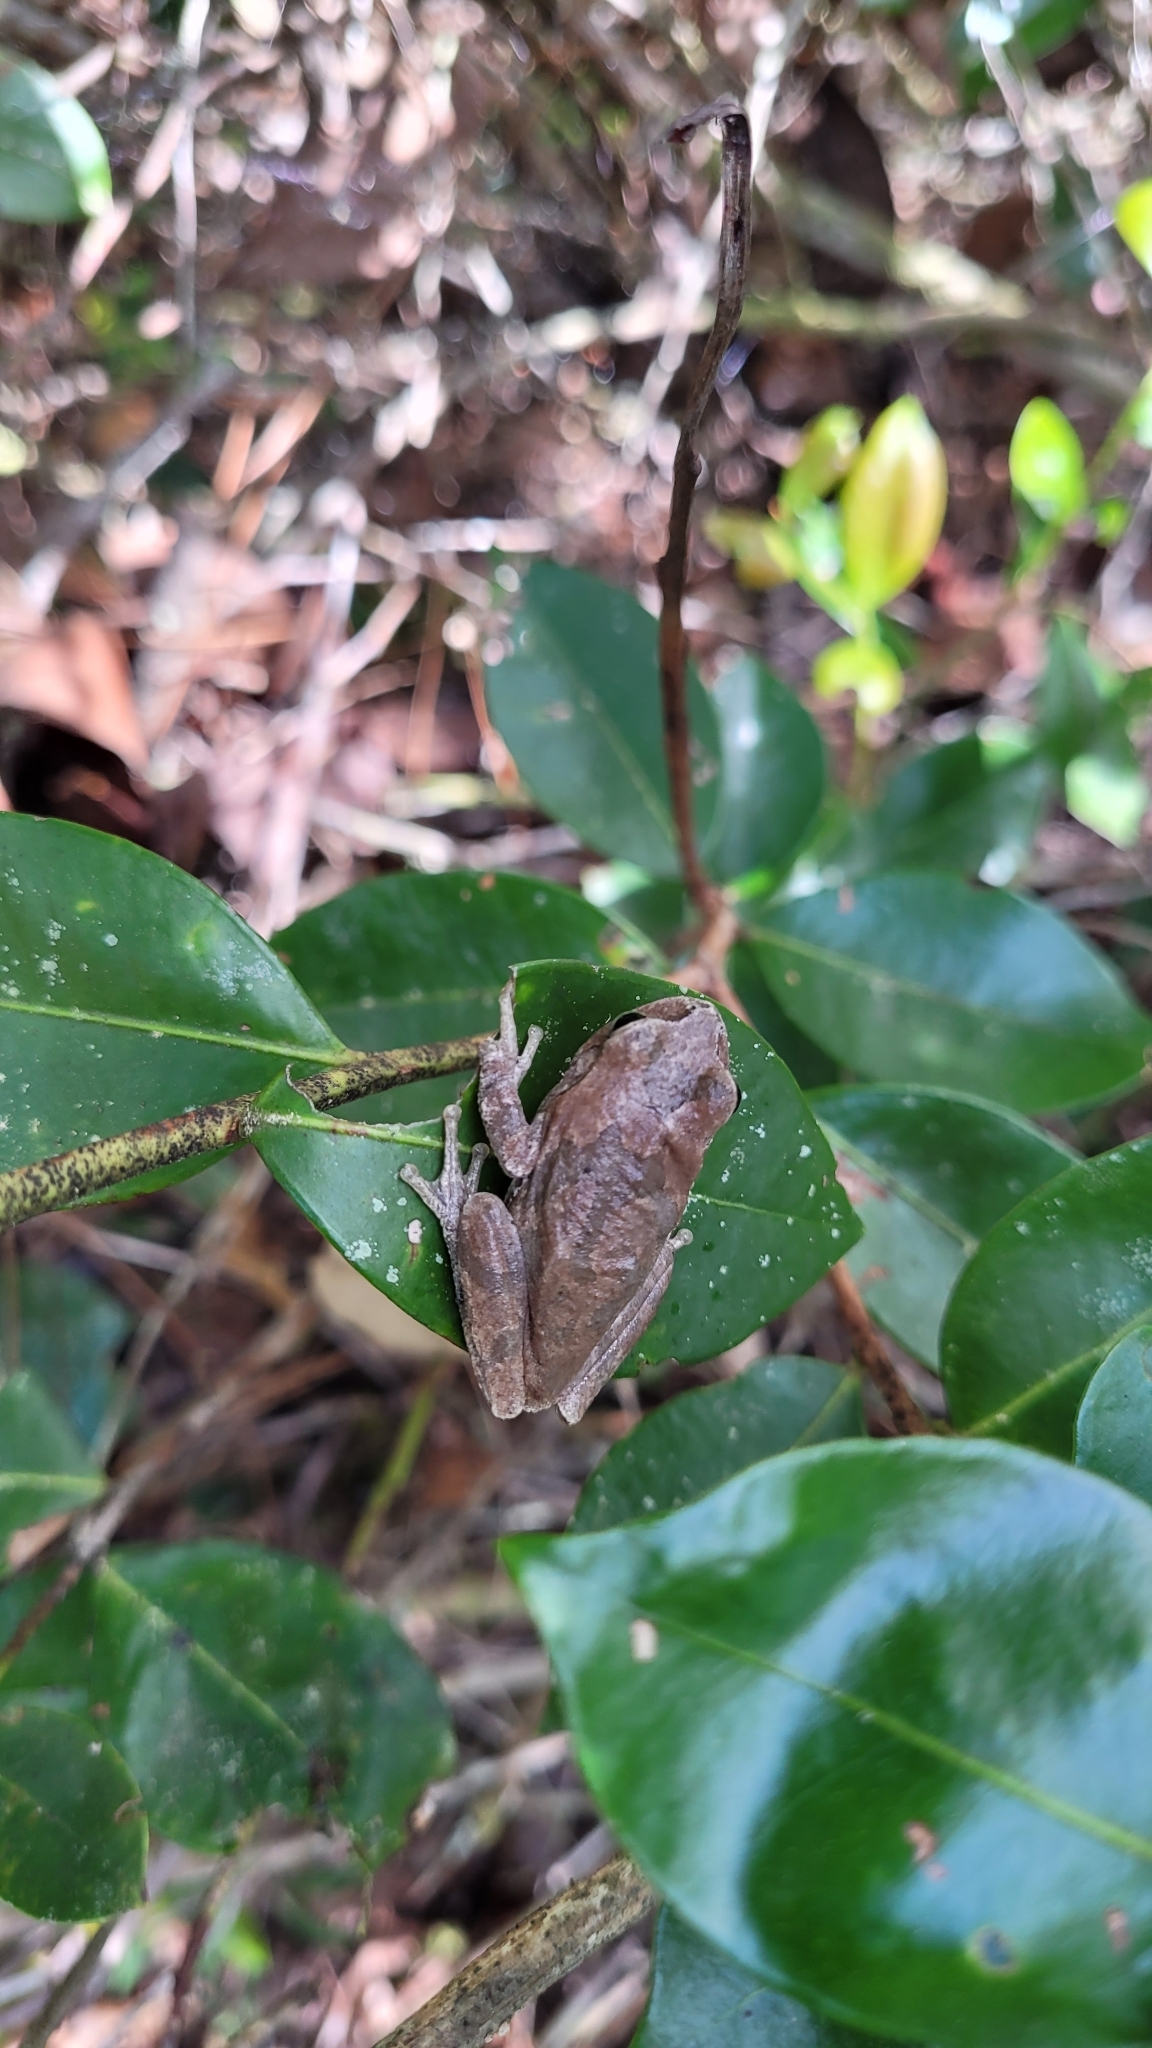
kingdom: Animalia
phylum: Chordata
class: Amphibia
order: Anura
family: Hylidae
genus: Hyla
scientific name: Hyla femoralis
